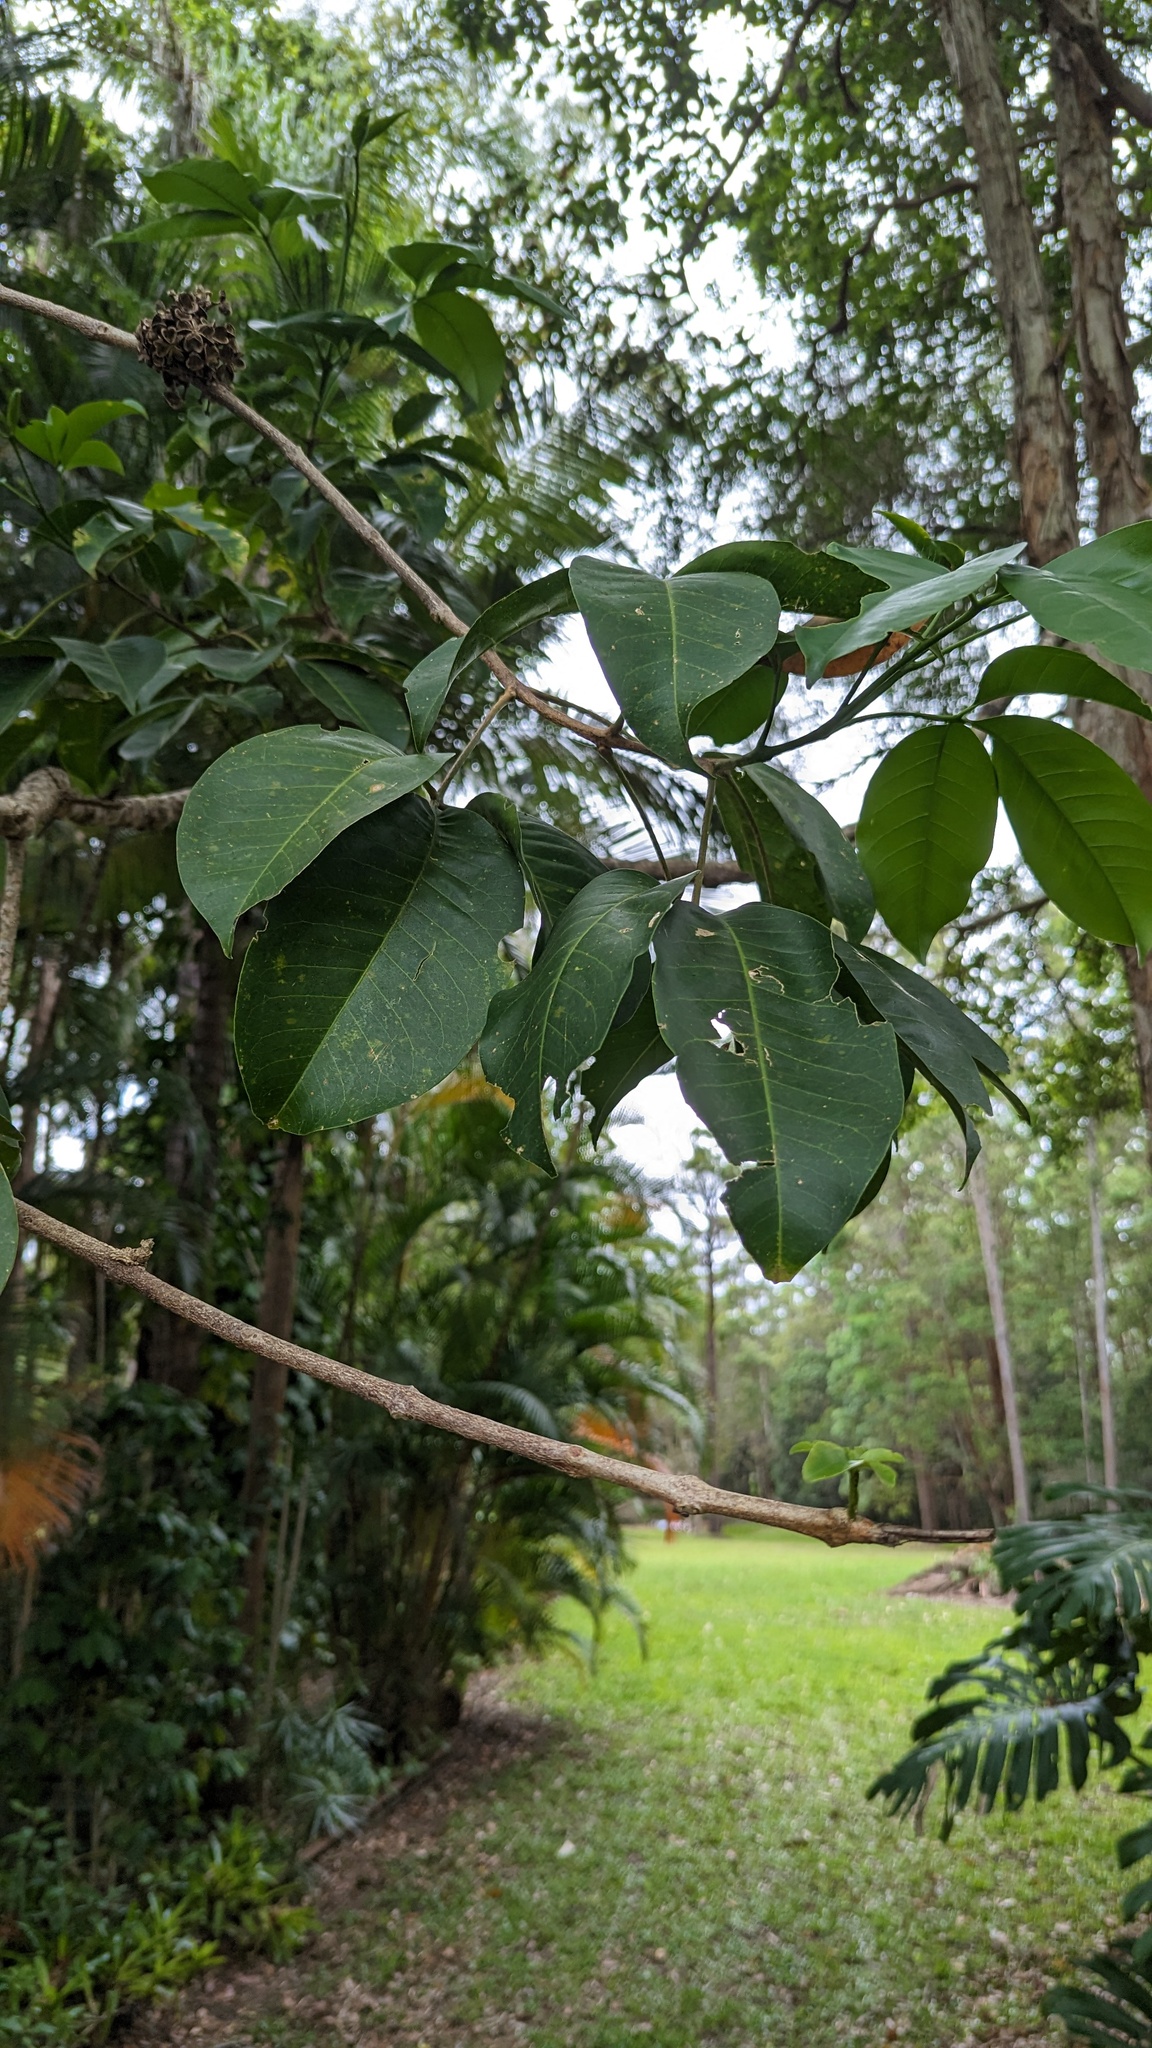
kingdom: Plantae
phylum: Tracheophyta
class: Magnoliopsida
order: Sapindales
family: Rutaceae
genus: Melicope
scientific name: Melicope elleryana
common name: Pink euodia
